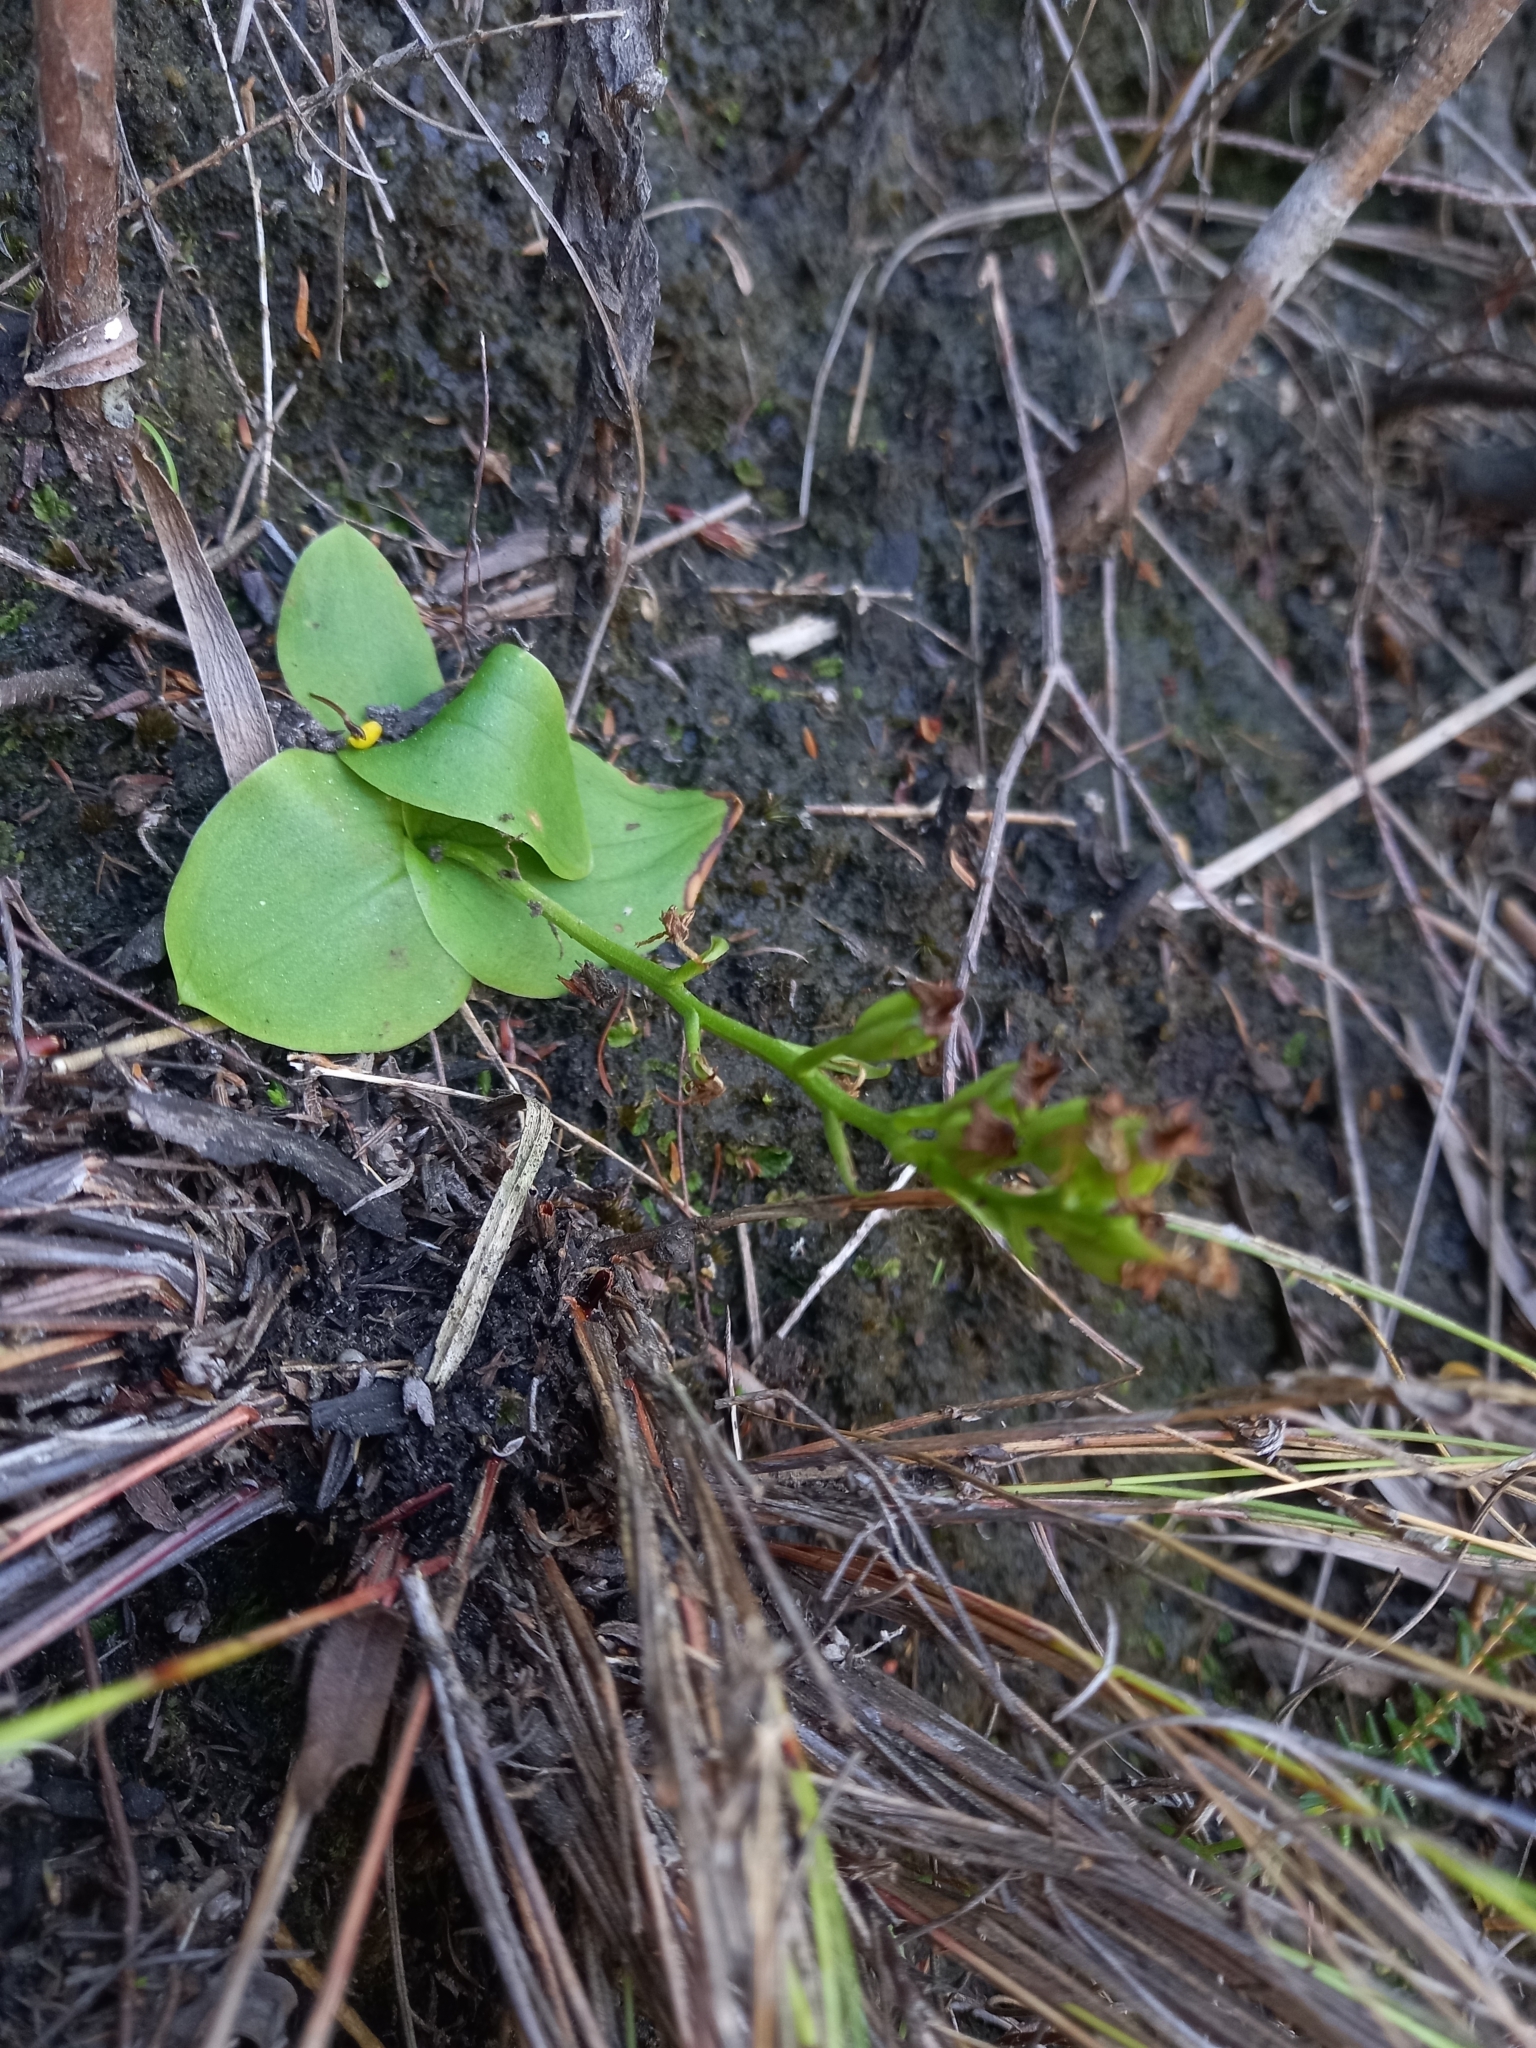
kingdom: Plantae
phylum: Tracheophyta
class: Liliopsida
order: Asparagales
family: Orchidaceae
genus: Liparis
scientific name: Liparis capensis
